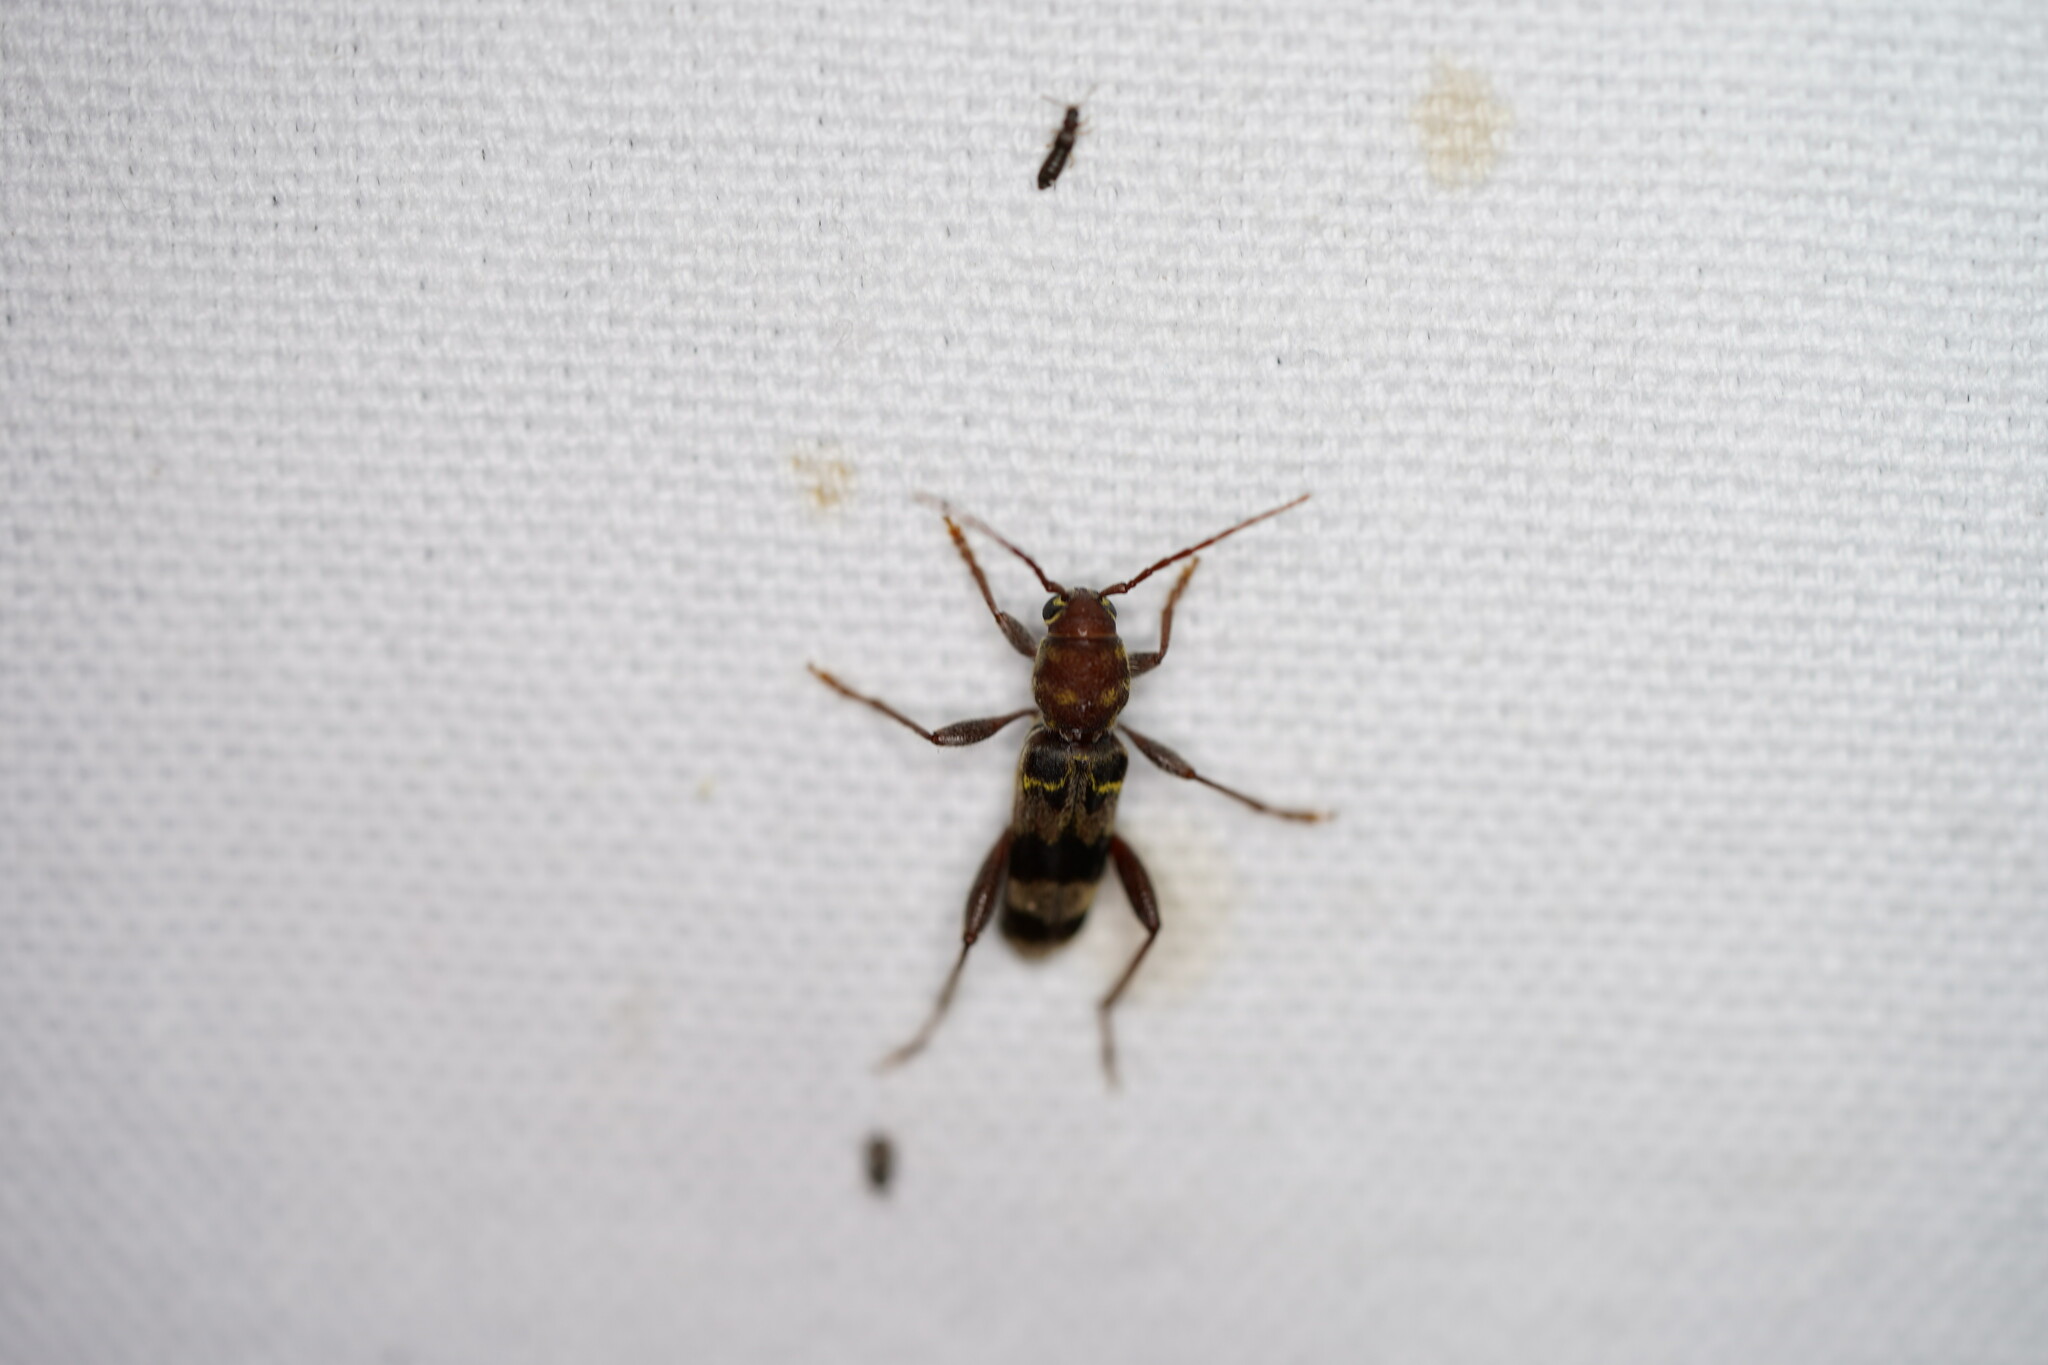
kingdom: Animalia
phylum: Arthropoda
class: Insecta
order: Coleoptera
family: Cerambycidae
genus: Xylotrechus
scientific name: Xylotrechus colonus
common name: Long-horned beetle
